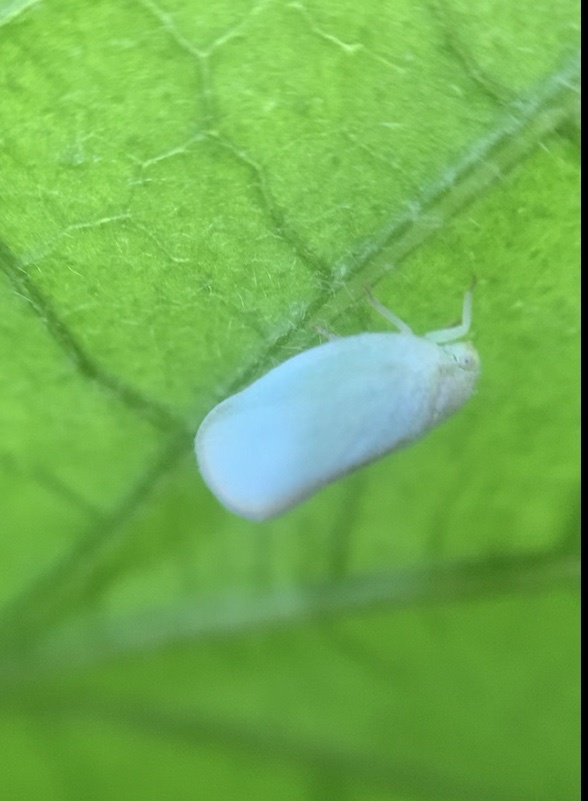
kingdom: Animalia
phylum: Arthropoda
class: Insecta
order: Hemiptera
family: Flatidae
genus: Ormenoides
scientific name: Ormenoides venusta
